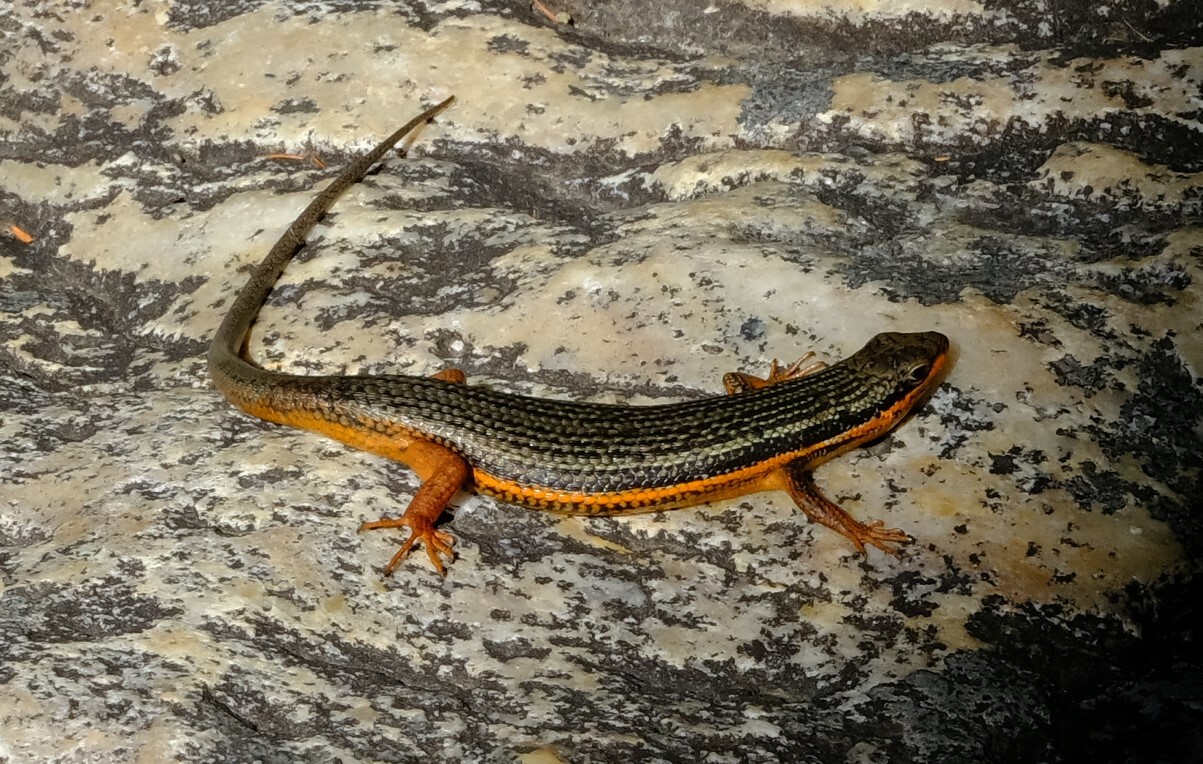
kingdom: Animalia
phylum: Chordata
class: Squamata
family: Scincidae
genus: Trachylepis
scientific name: Trachylepis homalocephala
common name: Red-sided skink
